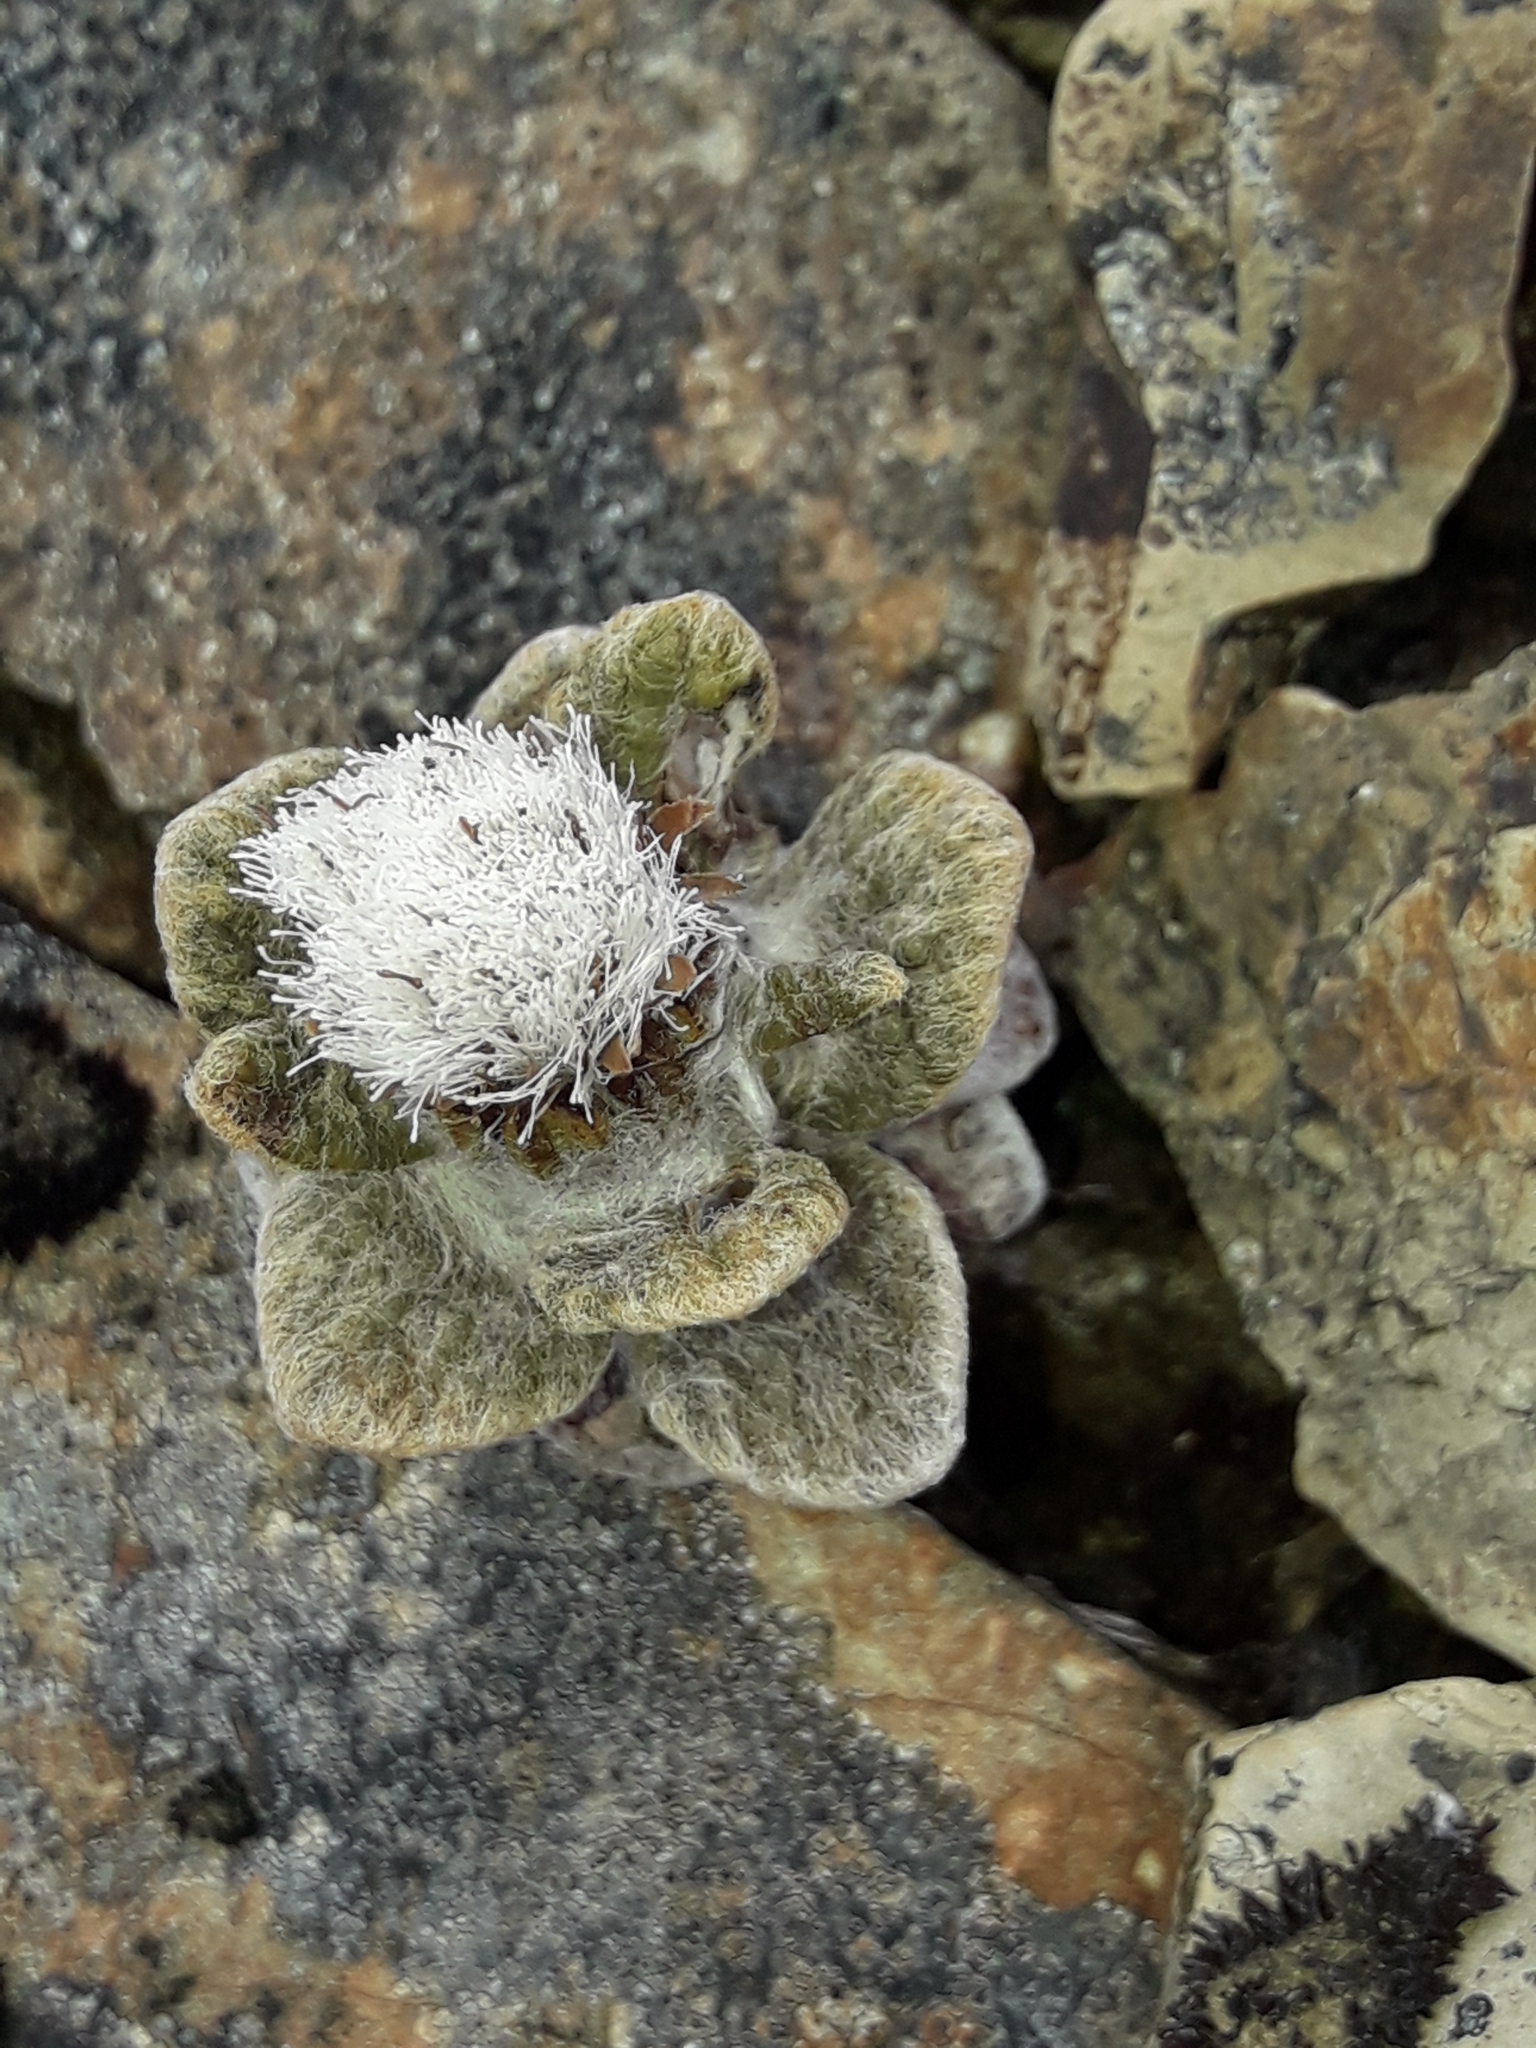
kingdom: Plantae
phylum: Tracheophyta
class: Magnoliopsida
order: Asterales
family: Asteraceae
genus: Haastia
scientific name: Haastia sinclairii
